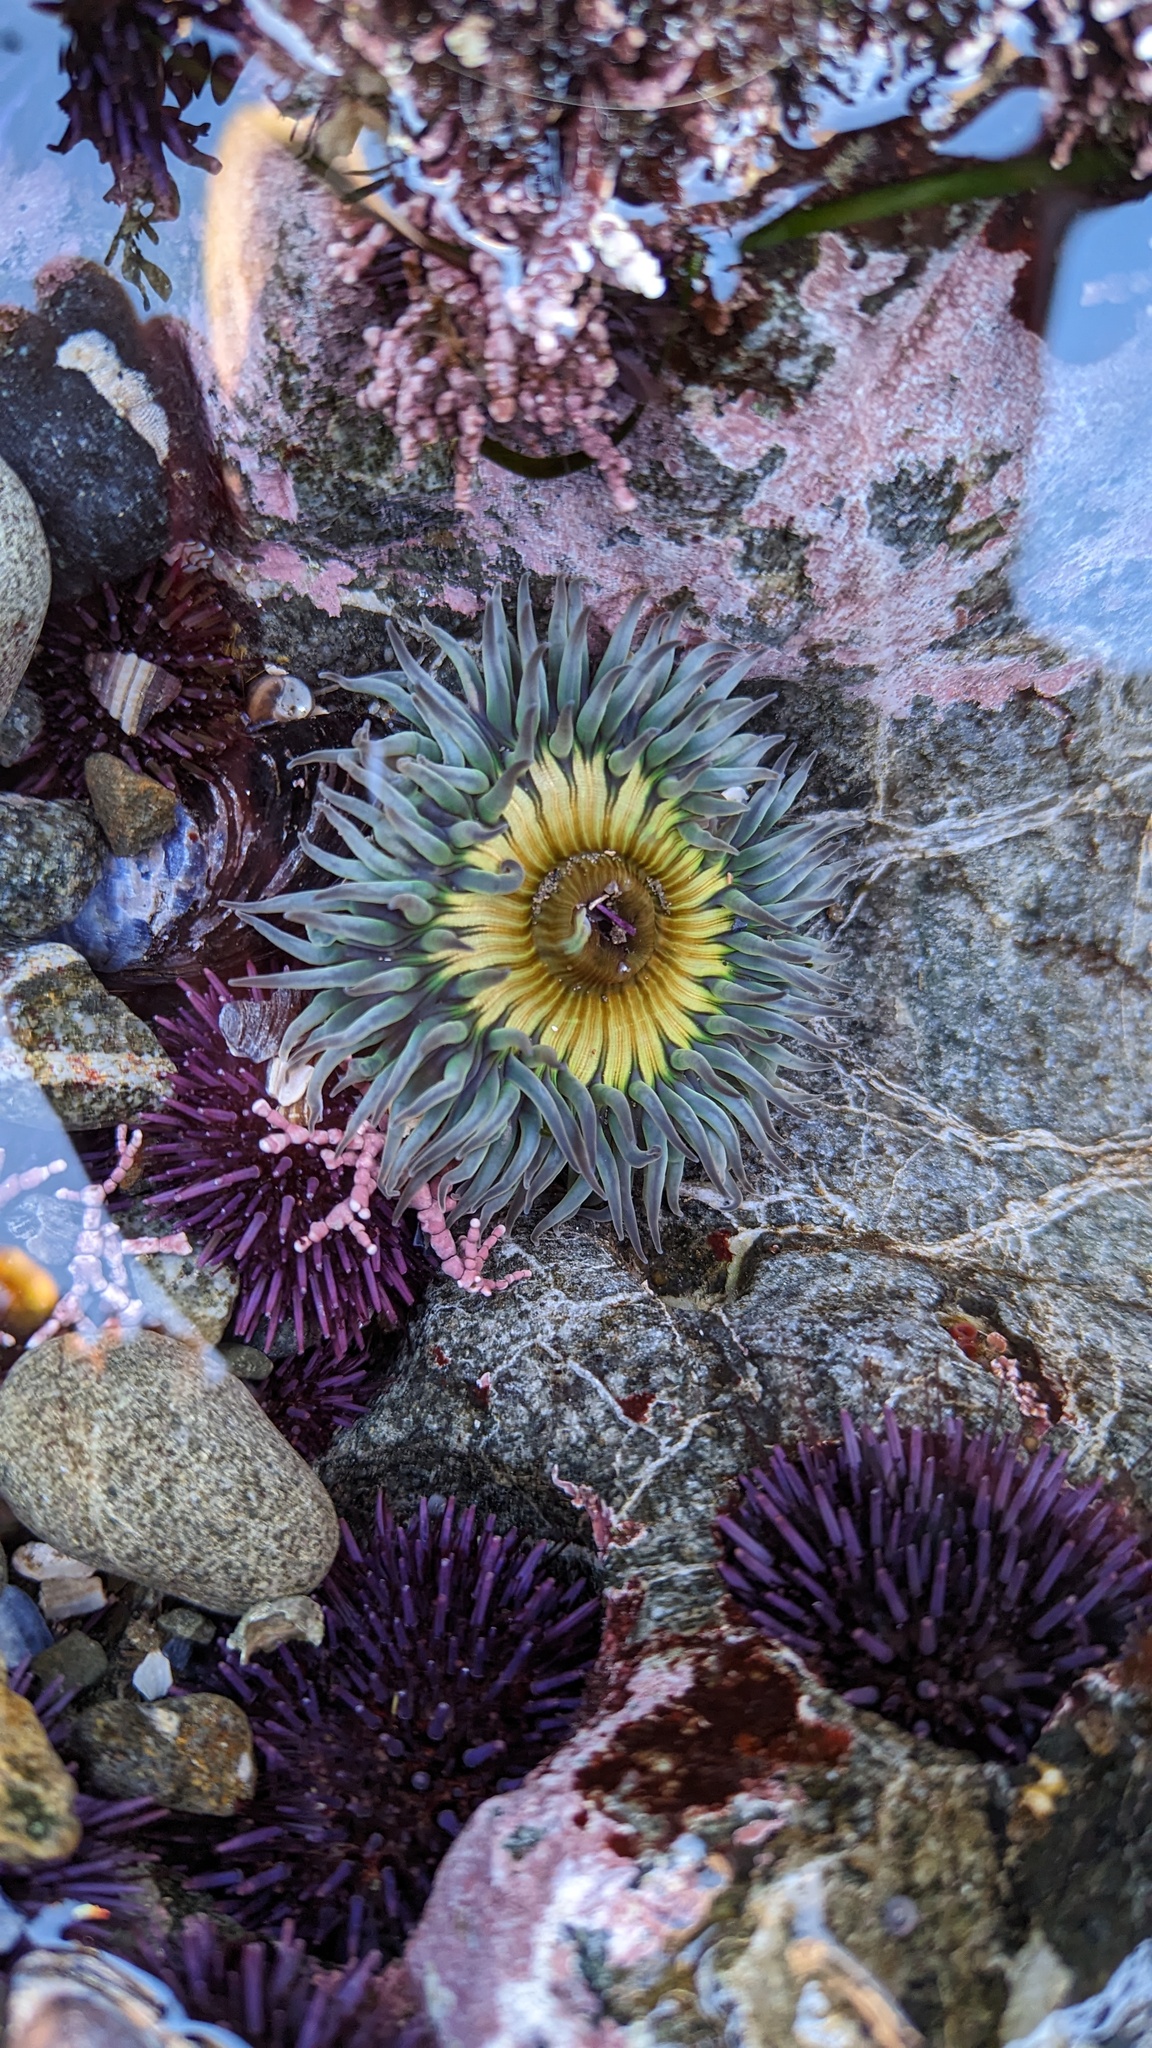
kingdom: Animalia
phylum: Cnidaria
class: Anthozoa
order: Actiniaria
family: Actiniidae
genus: Anthopleura
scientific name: Anthopleura sola
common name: Sun anemone
